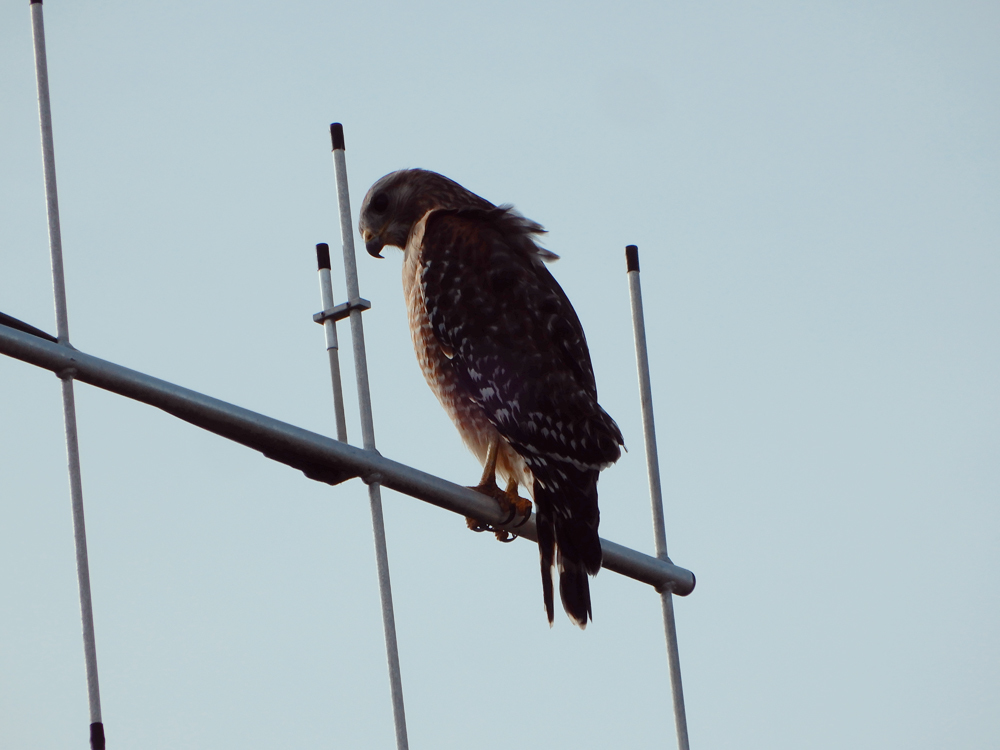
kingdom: Animalia
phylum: Chordata
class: Aves
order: Accipitriformes
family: Accipitridae
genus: Buteo
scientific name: Buteo lineatus
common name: Red-shouldered hawk
